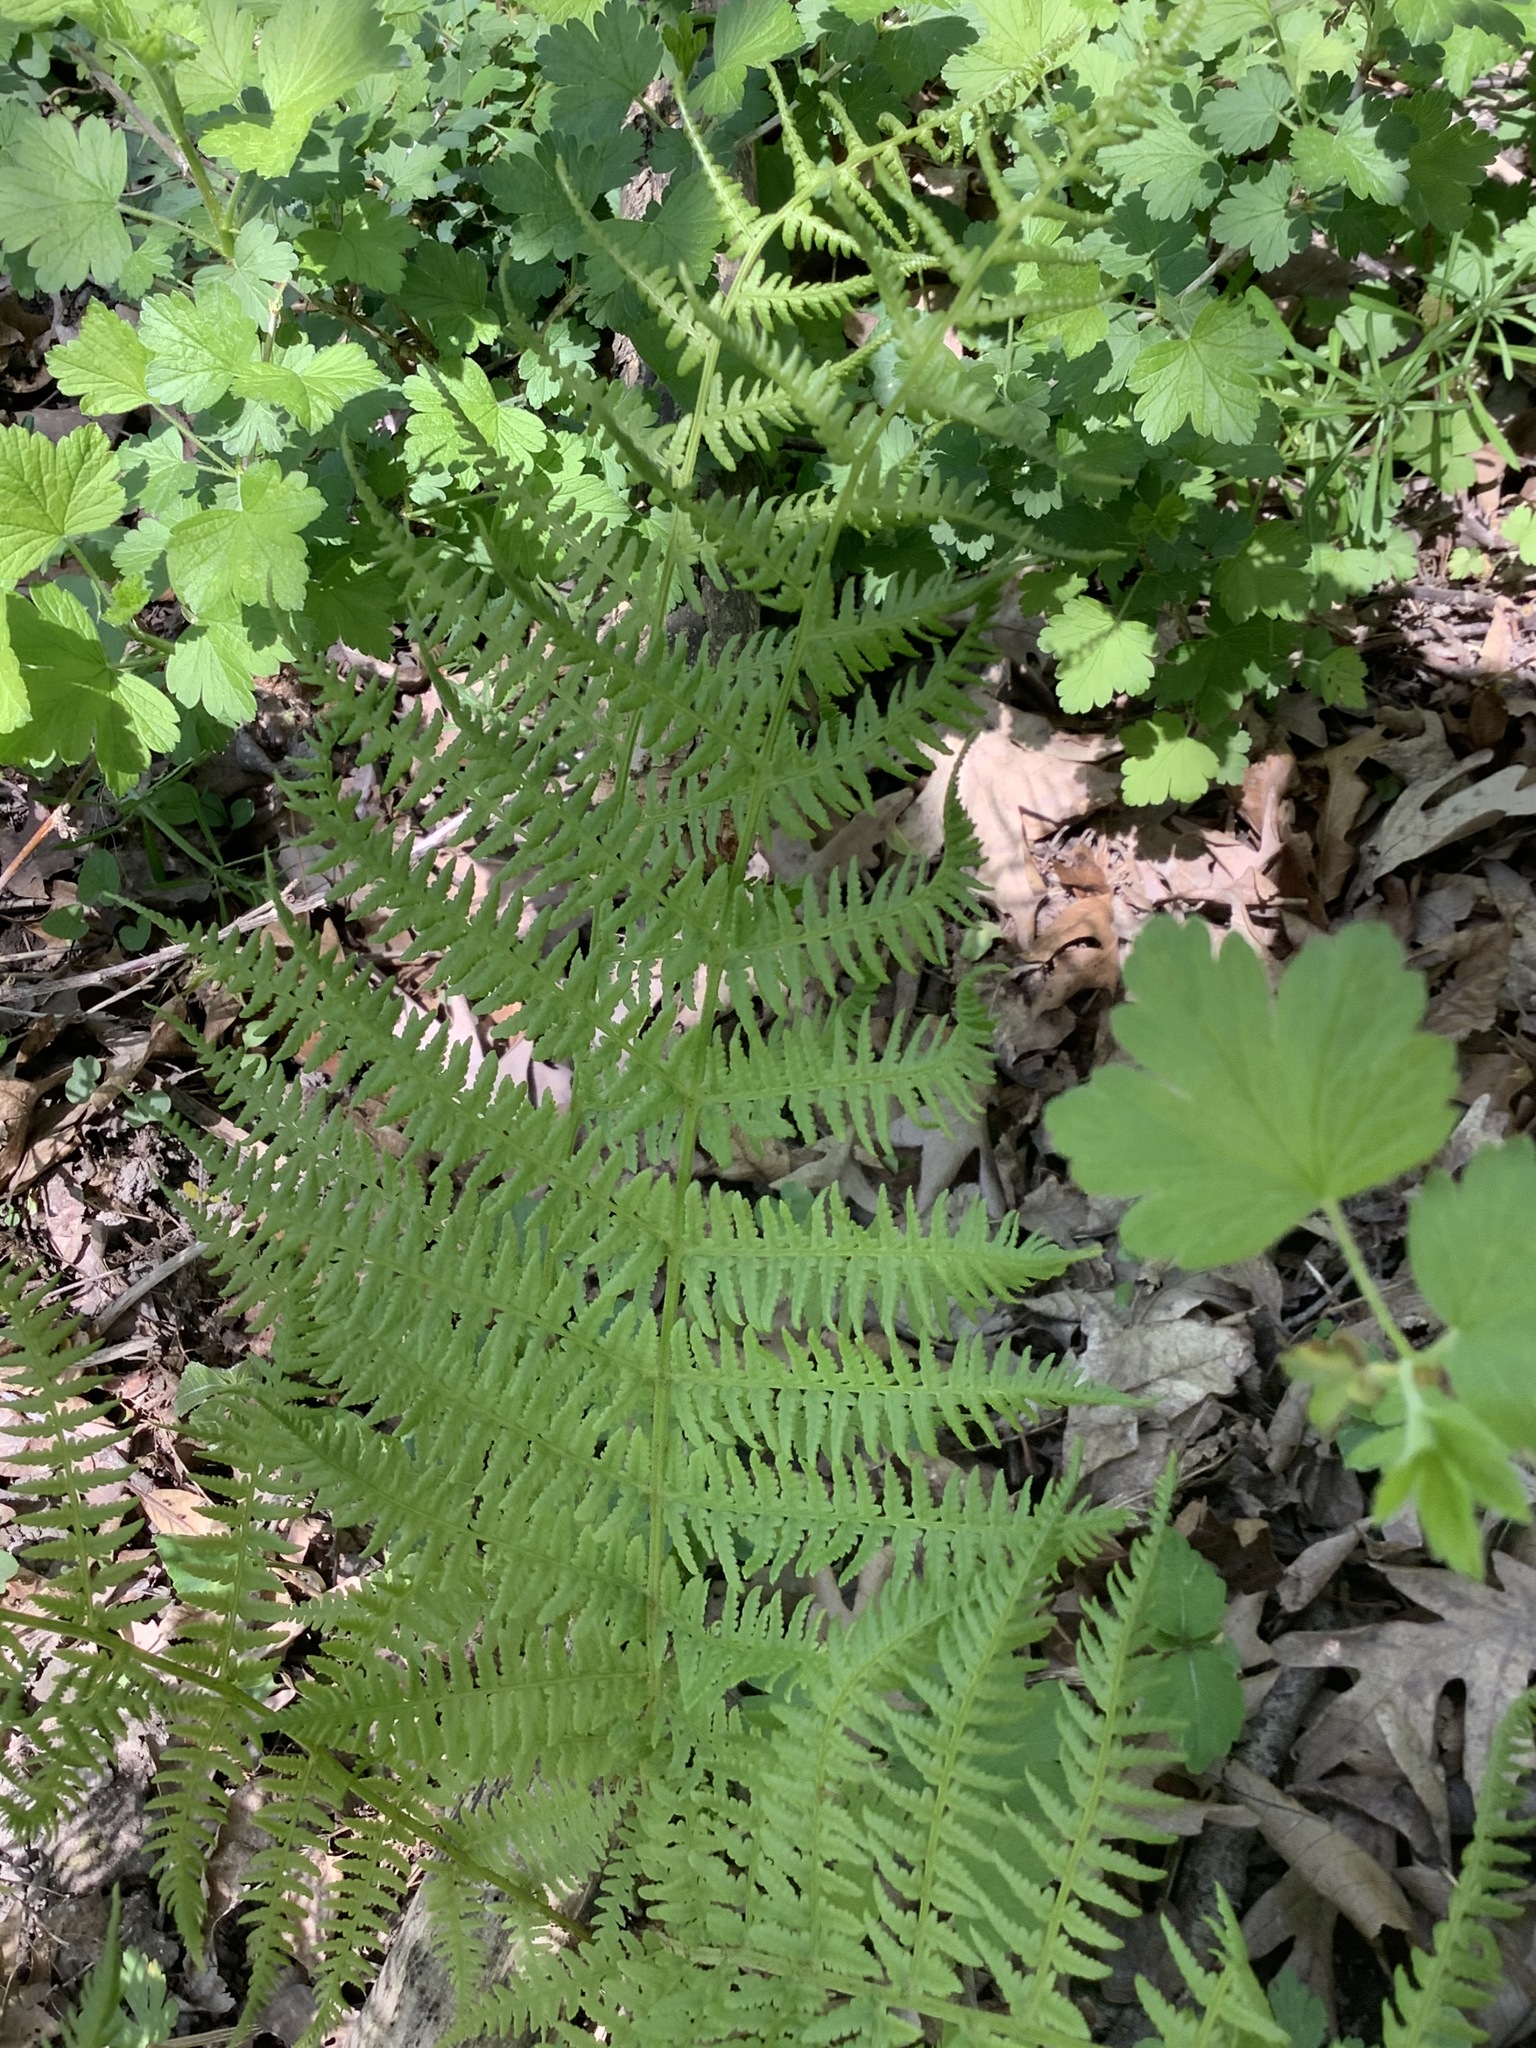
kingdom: Plantae
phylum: Tracheophyta
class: Polypodiopsida
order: Polypodiales
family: Athyriaceae
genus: Athyrium
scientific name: Athyrium angustum
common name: Northern lady fern
